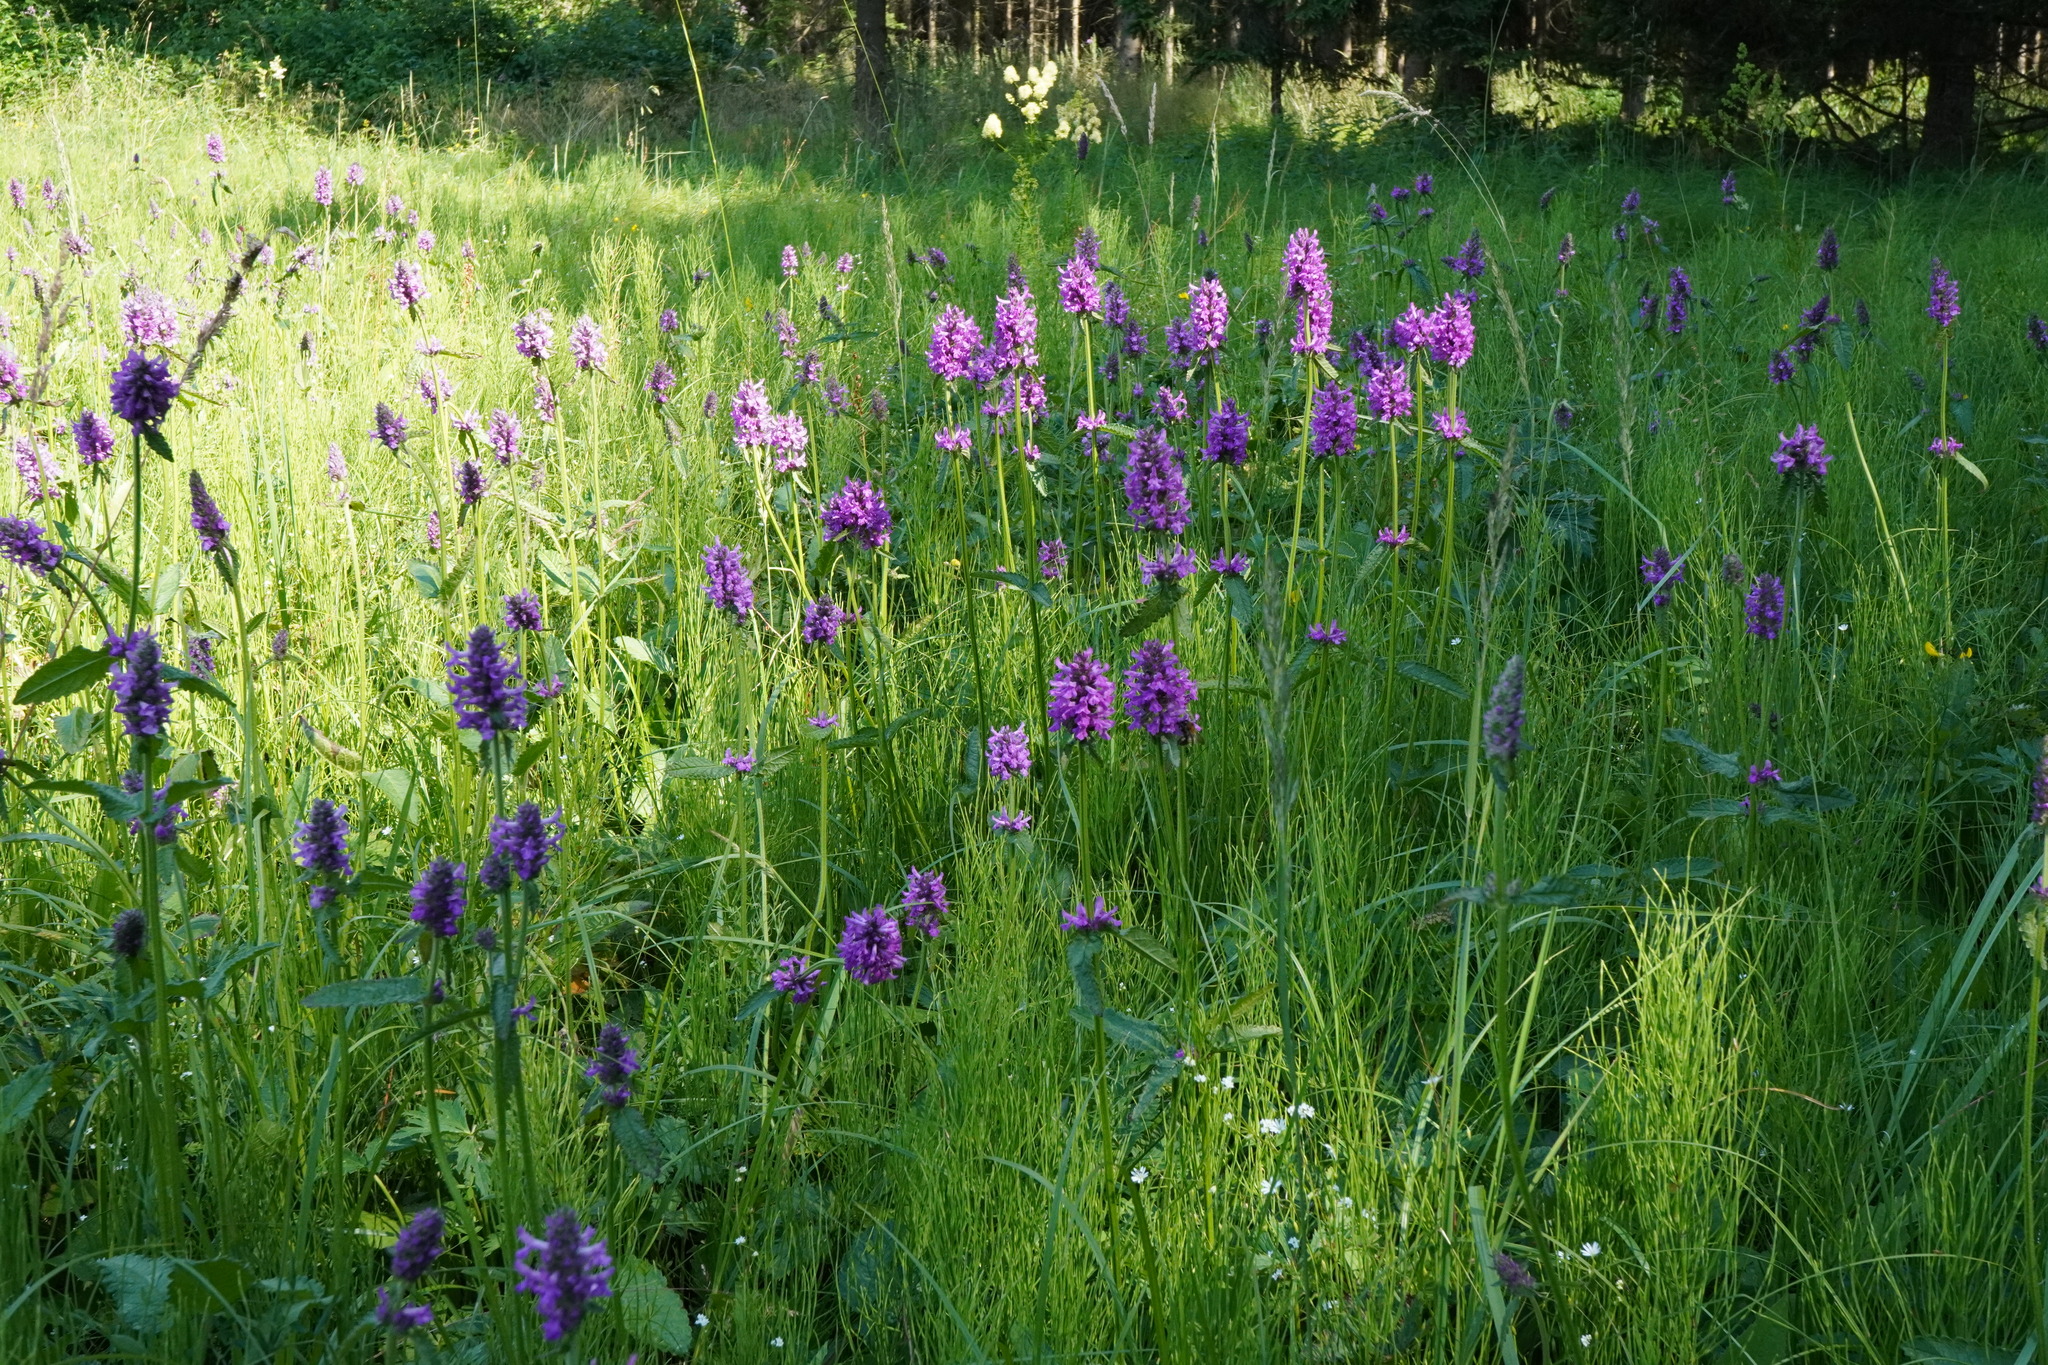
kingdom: Plantae
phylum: Tracheophyta
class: Magnoliopsida
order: Lamiales
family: Lamiaceae
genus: Betonica
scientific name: Betonica officinalis
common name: Bishop's-wort
